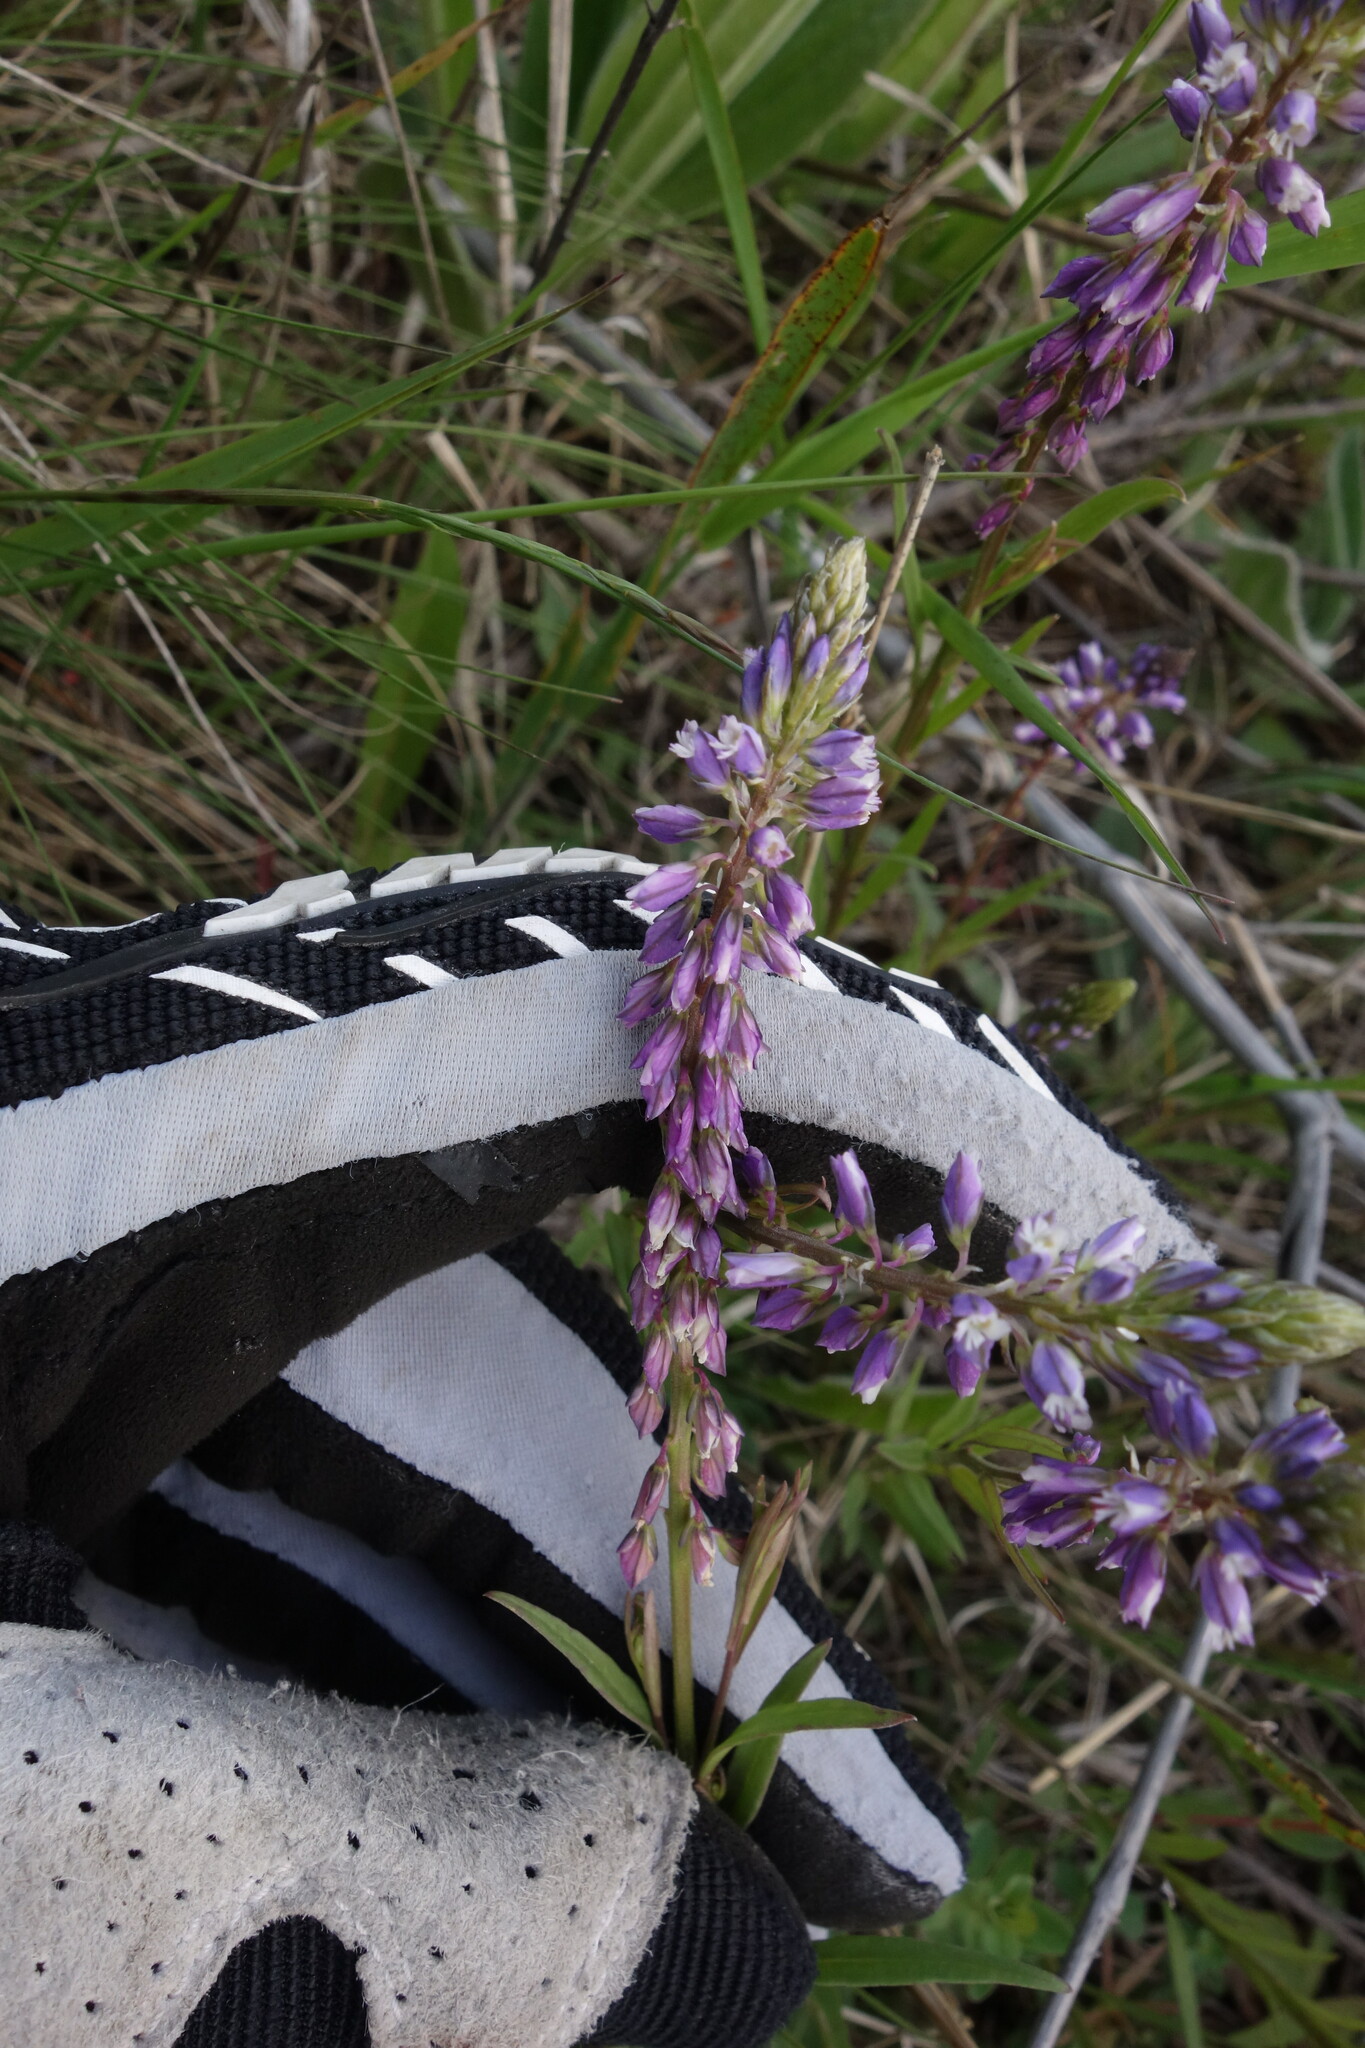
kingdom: Plantae
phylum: Tracheophyta
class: Magnoliopsida
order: Fabales
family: Polygalaceae
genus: Polygala
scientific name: Polygala comosa
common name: Tufted milkwort
